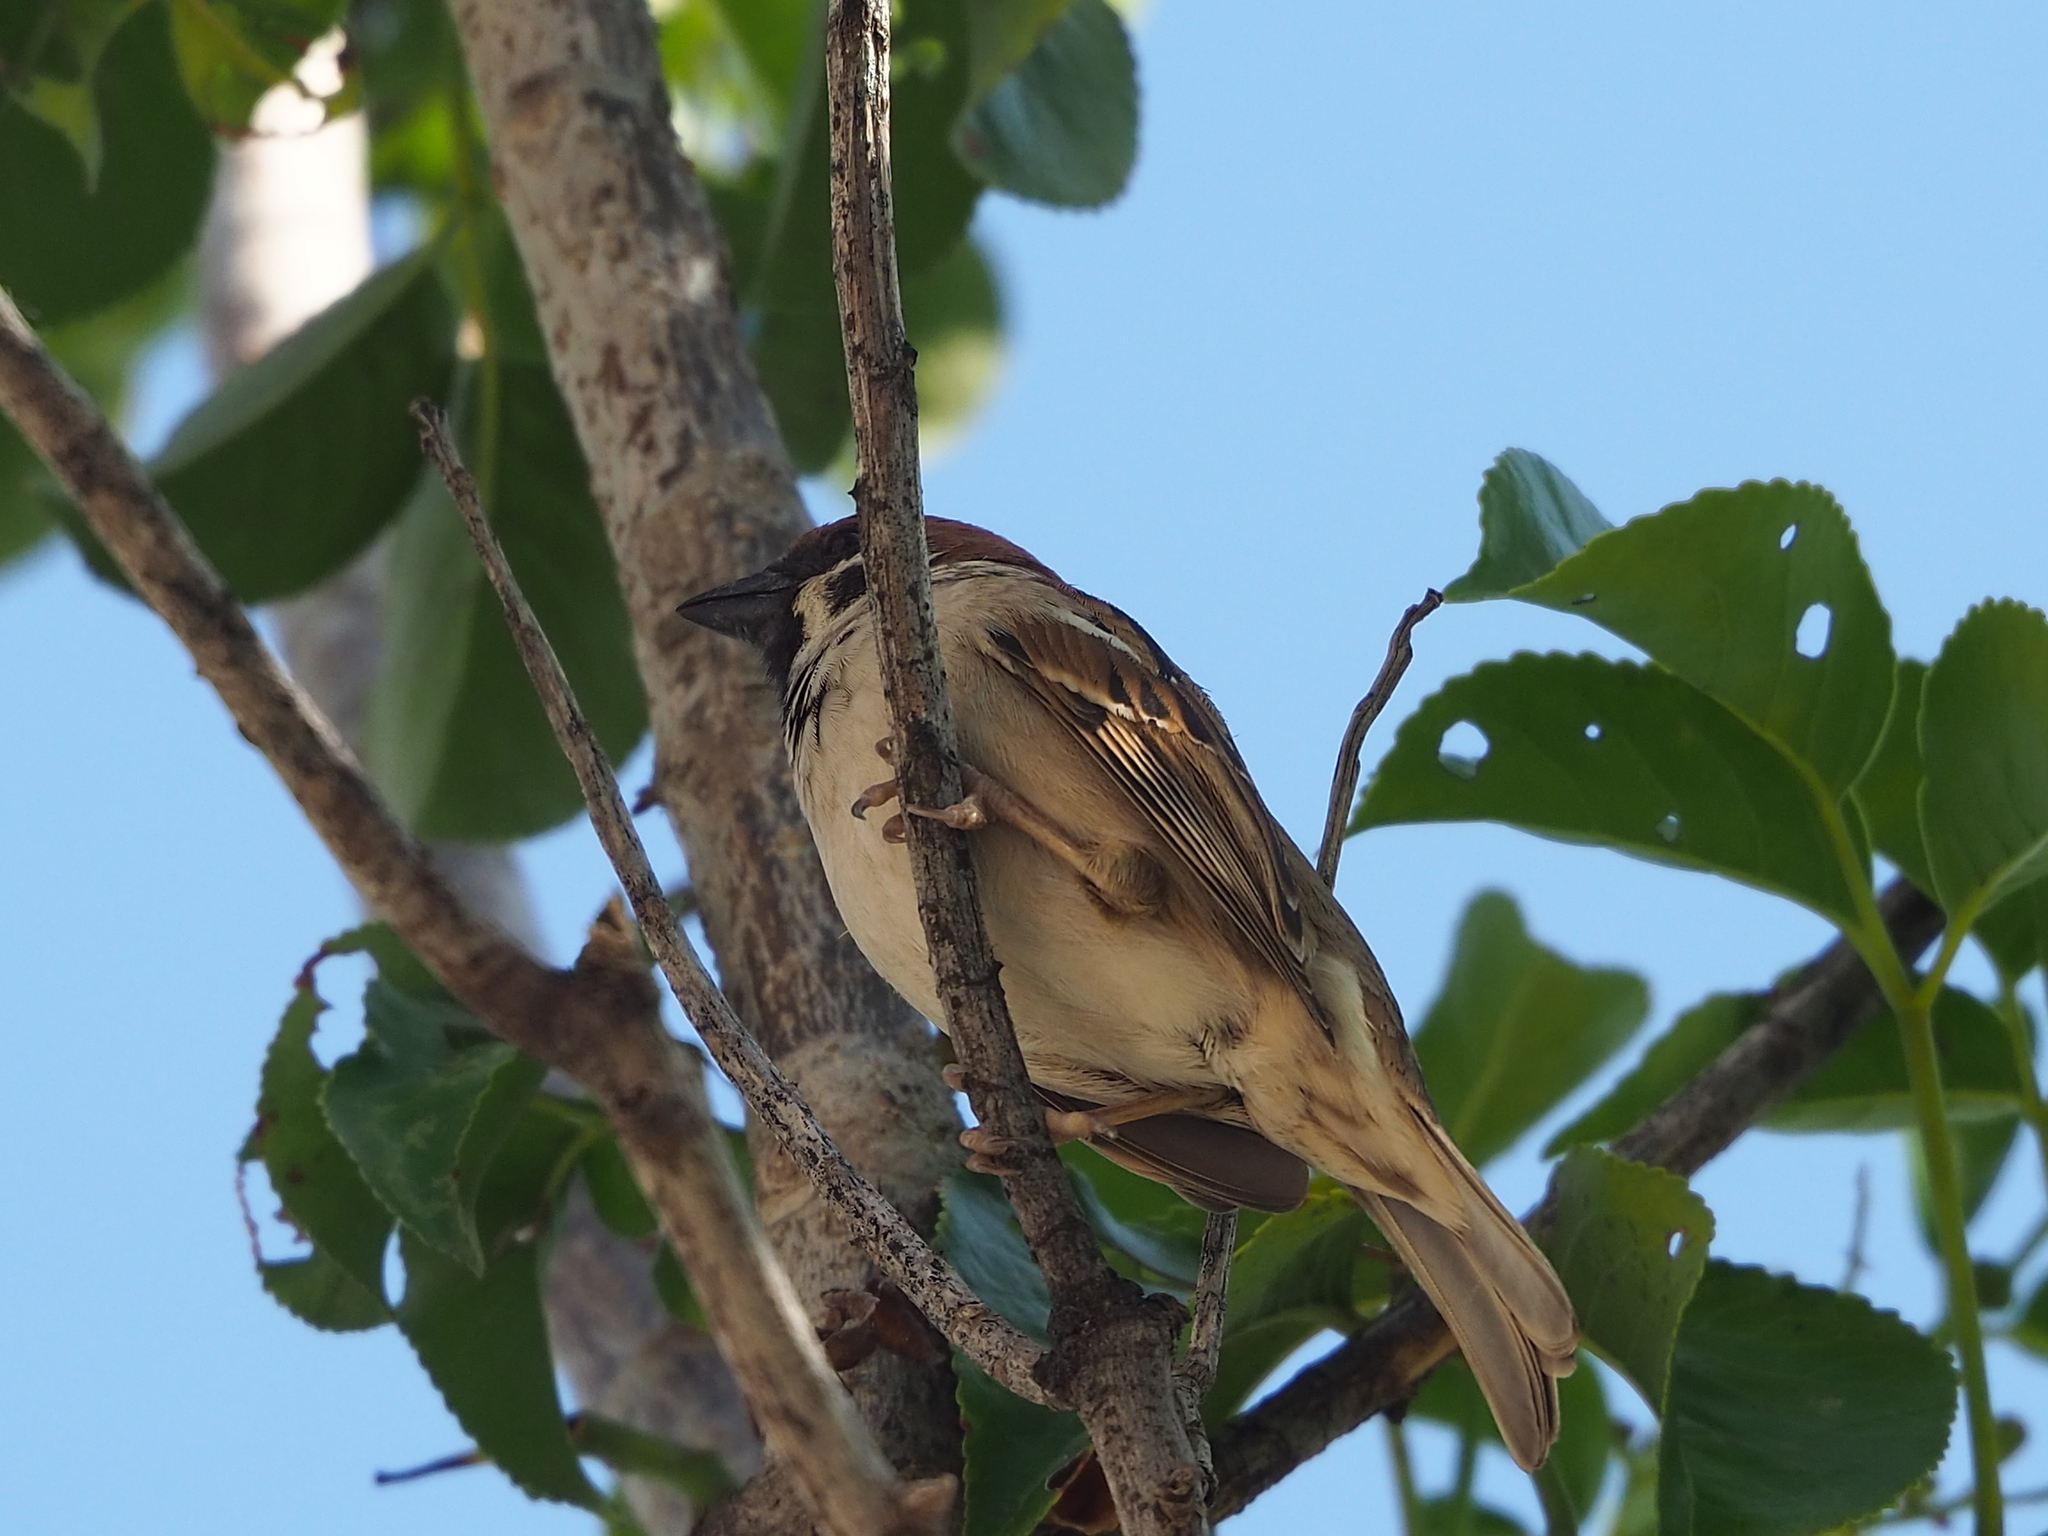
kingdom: Animalia
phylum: Chordata
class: Aves
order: Passeriformes
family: Passeridae
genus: Passer
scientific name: Passer montanus
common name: Eurasian tree sparrow
